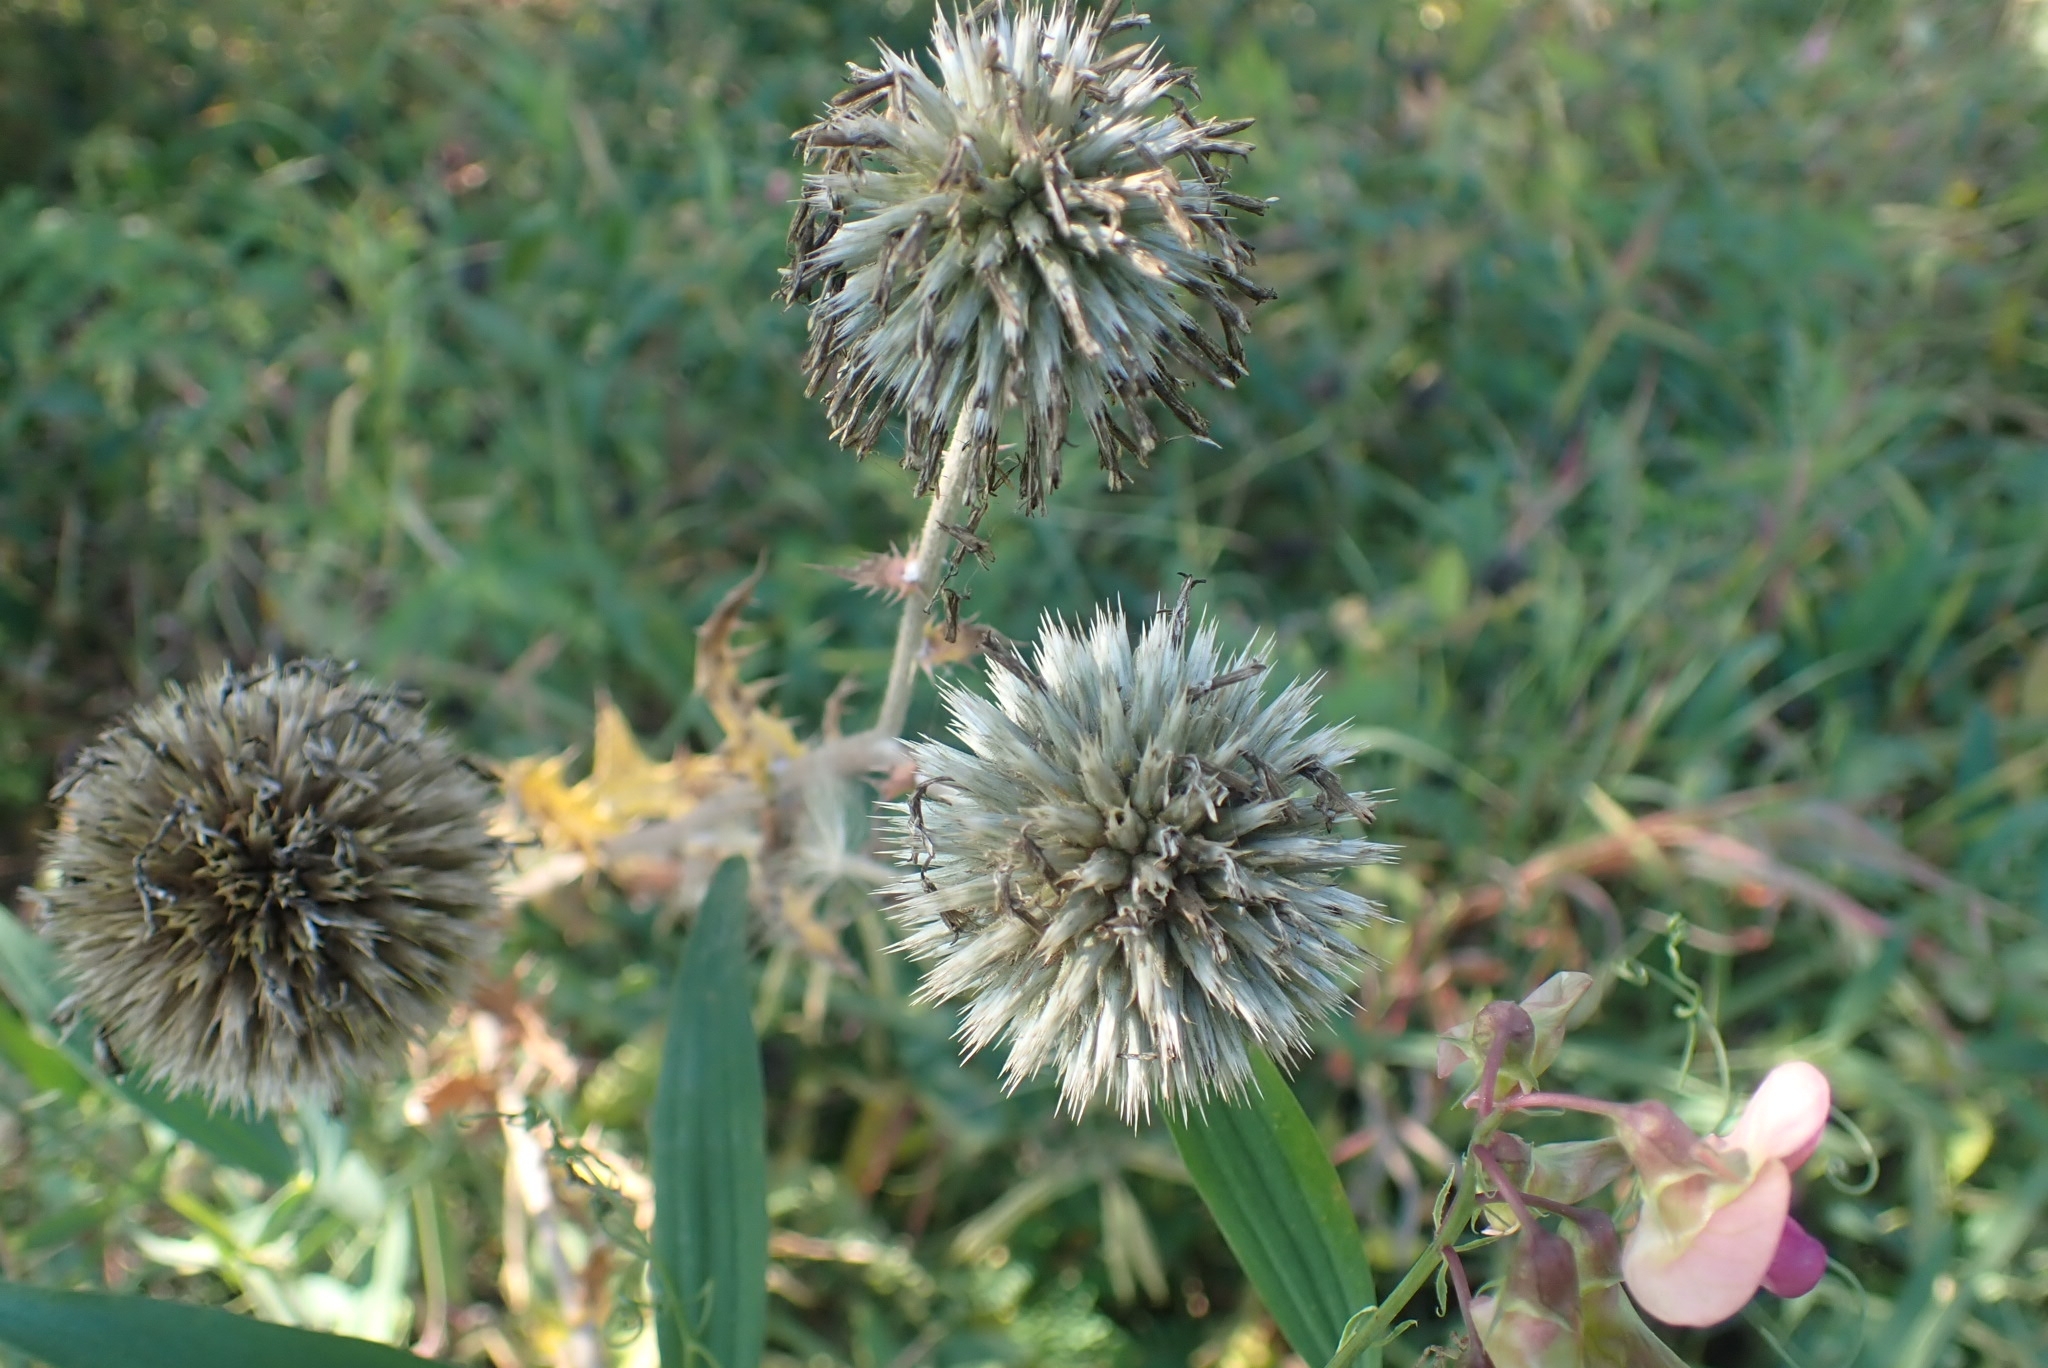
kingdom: Plantae
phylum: Tracheophyta
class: Magnoliopsida
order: Asterales
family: Asteraceae
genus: Echinops
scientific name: Echinops sphaerocephalus
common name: Glandular globe-thistle
